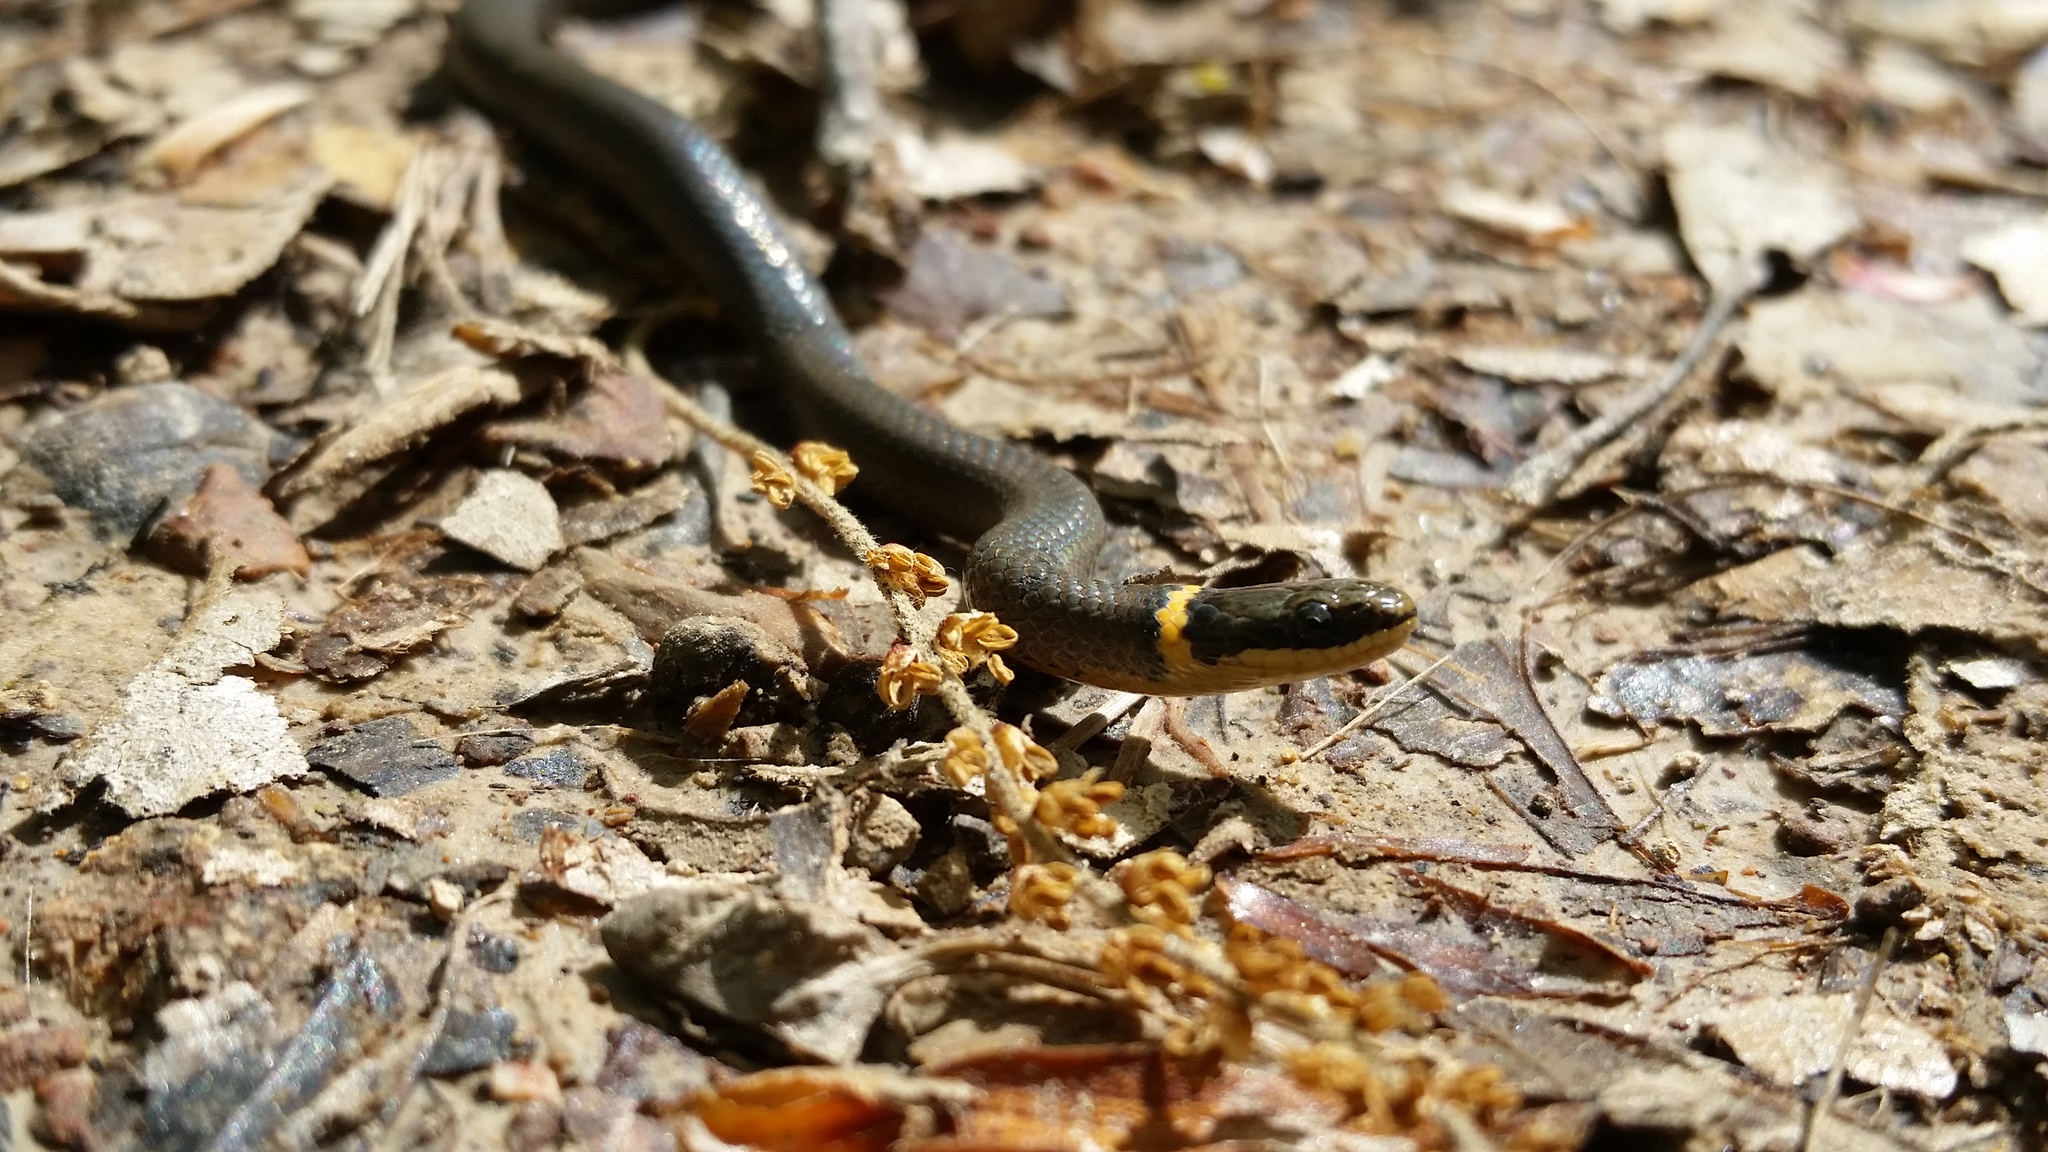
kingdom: Animalia
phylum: Chordata
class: Squamata
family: Colubridae
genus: Diadophis
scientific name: Diadophis punctatus
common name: Ringneck snake
